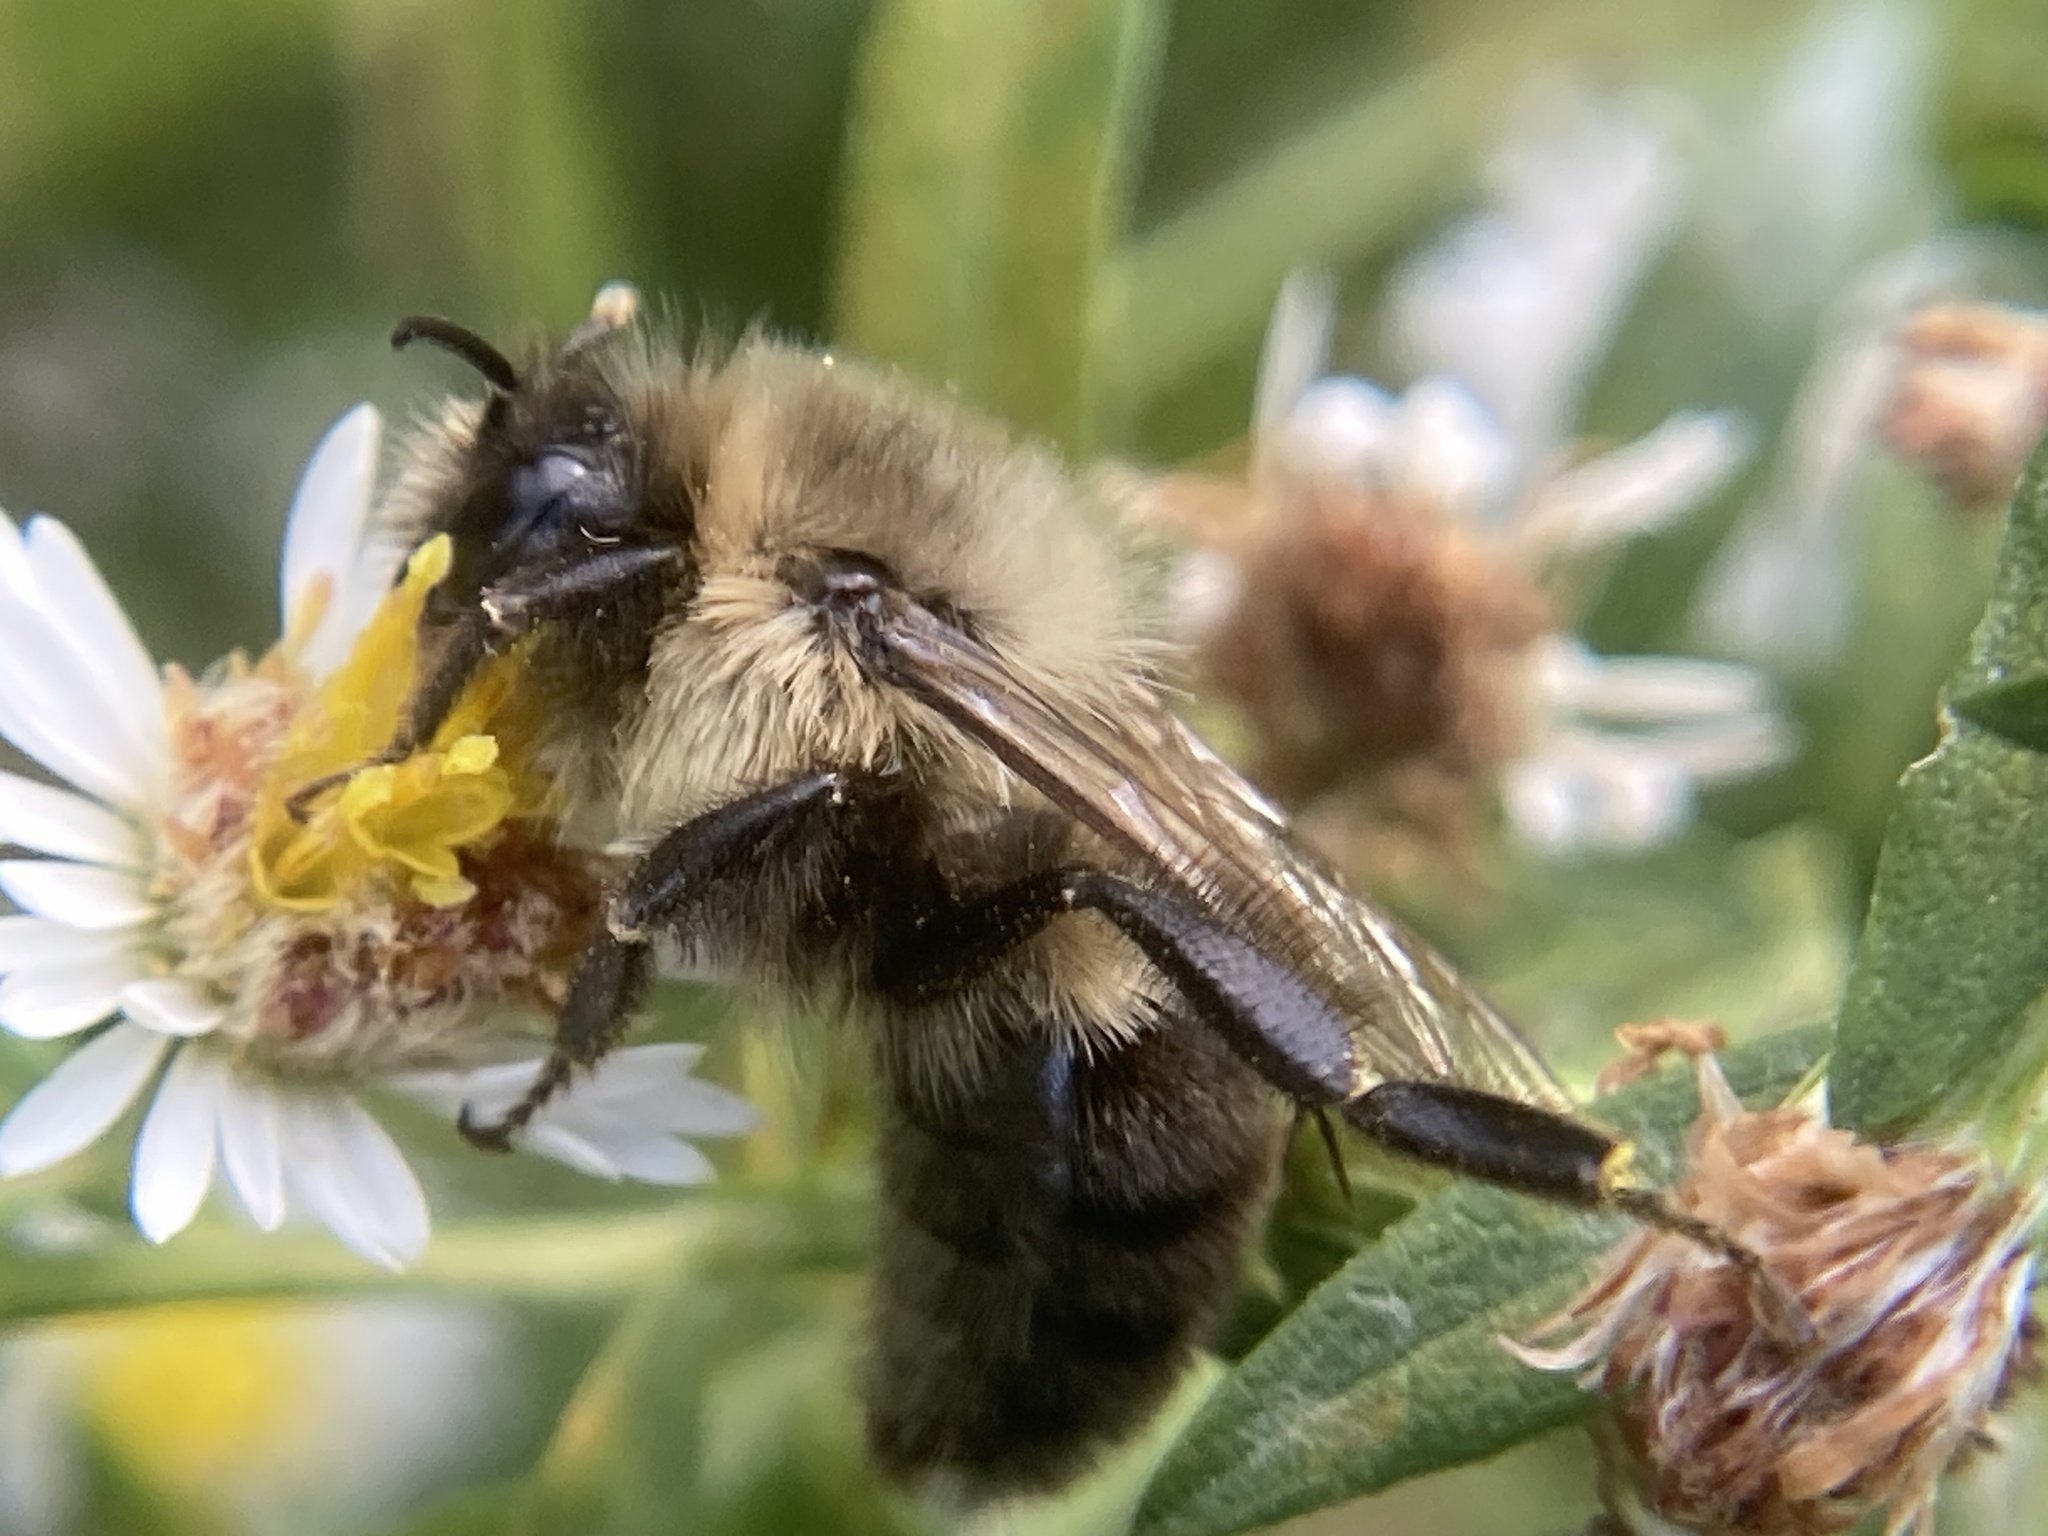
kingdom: Animalia
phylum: Arthropoda
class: Insecta
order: Hymenoptera
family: Apidae
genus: Bombus
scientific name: Bombus impatiens
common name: Common eastern bumble bee
